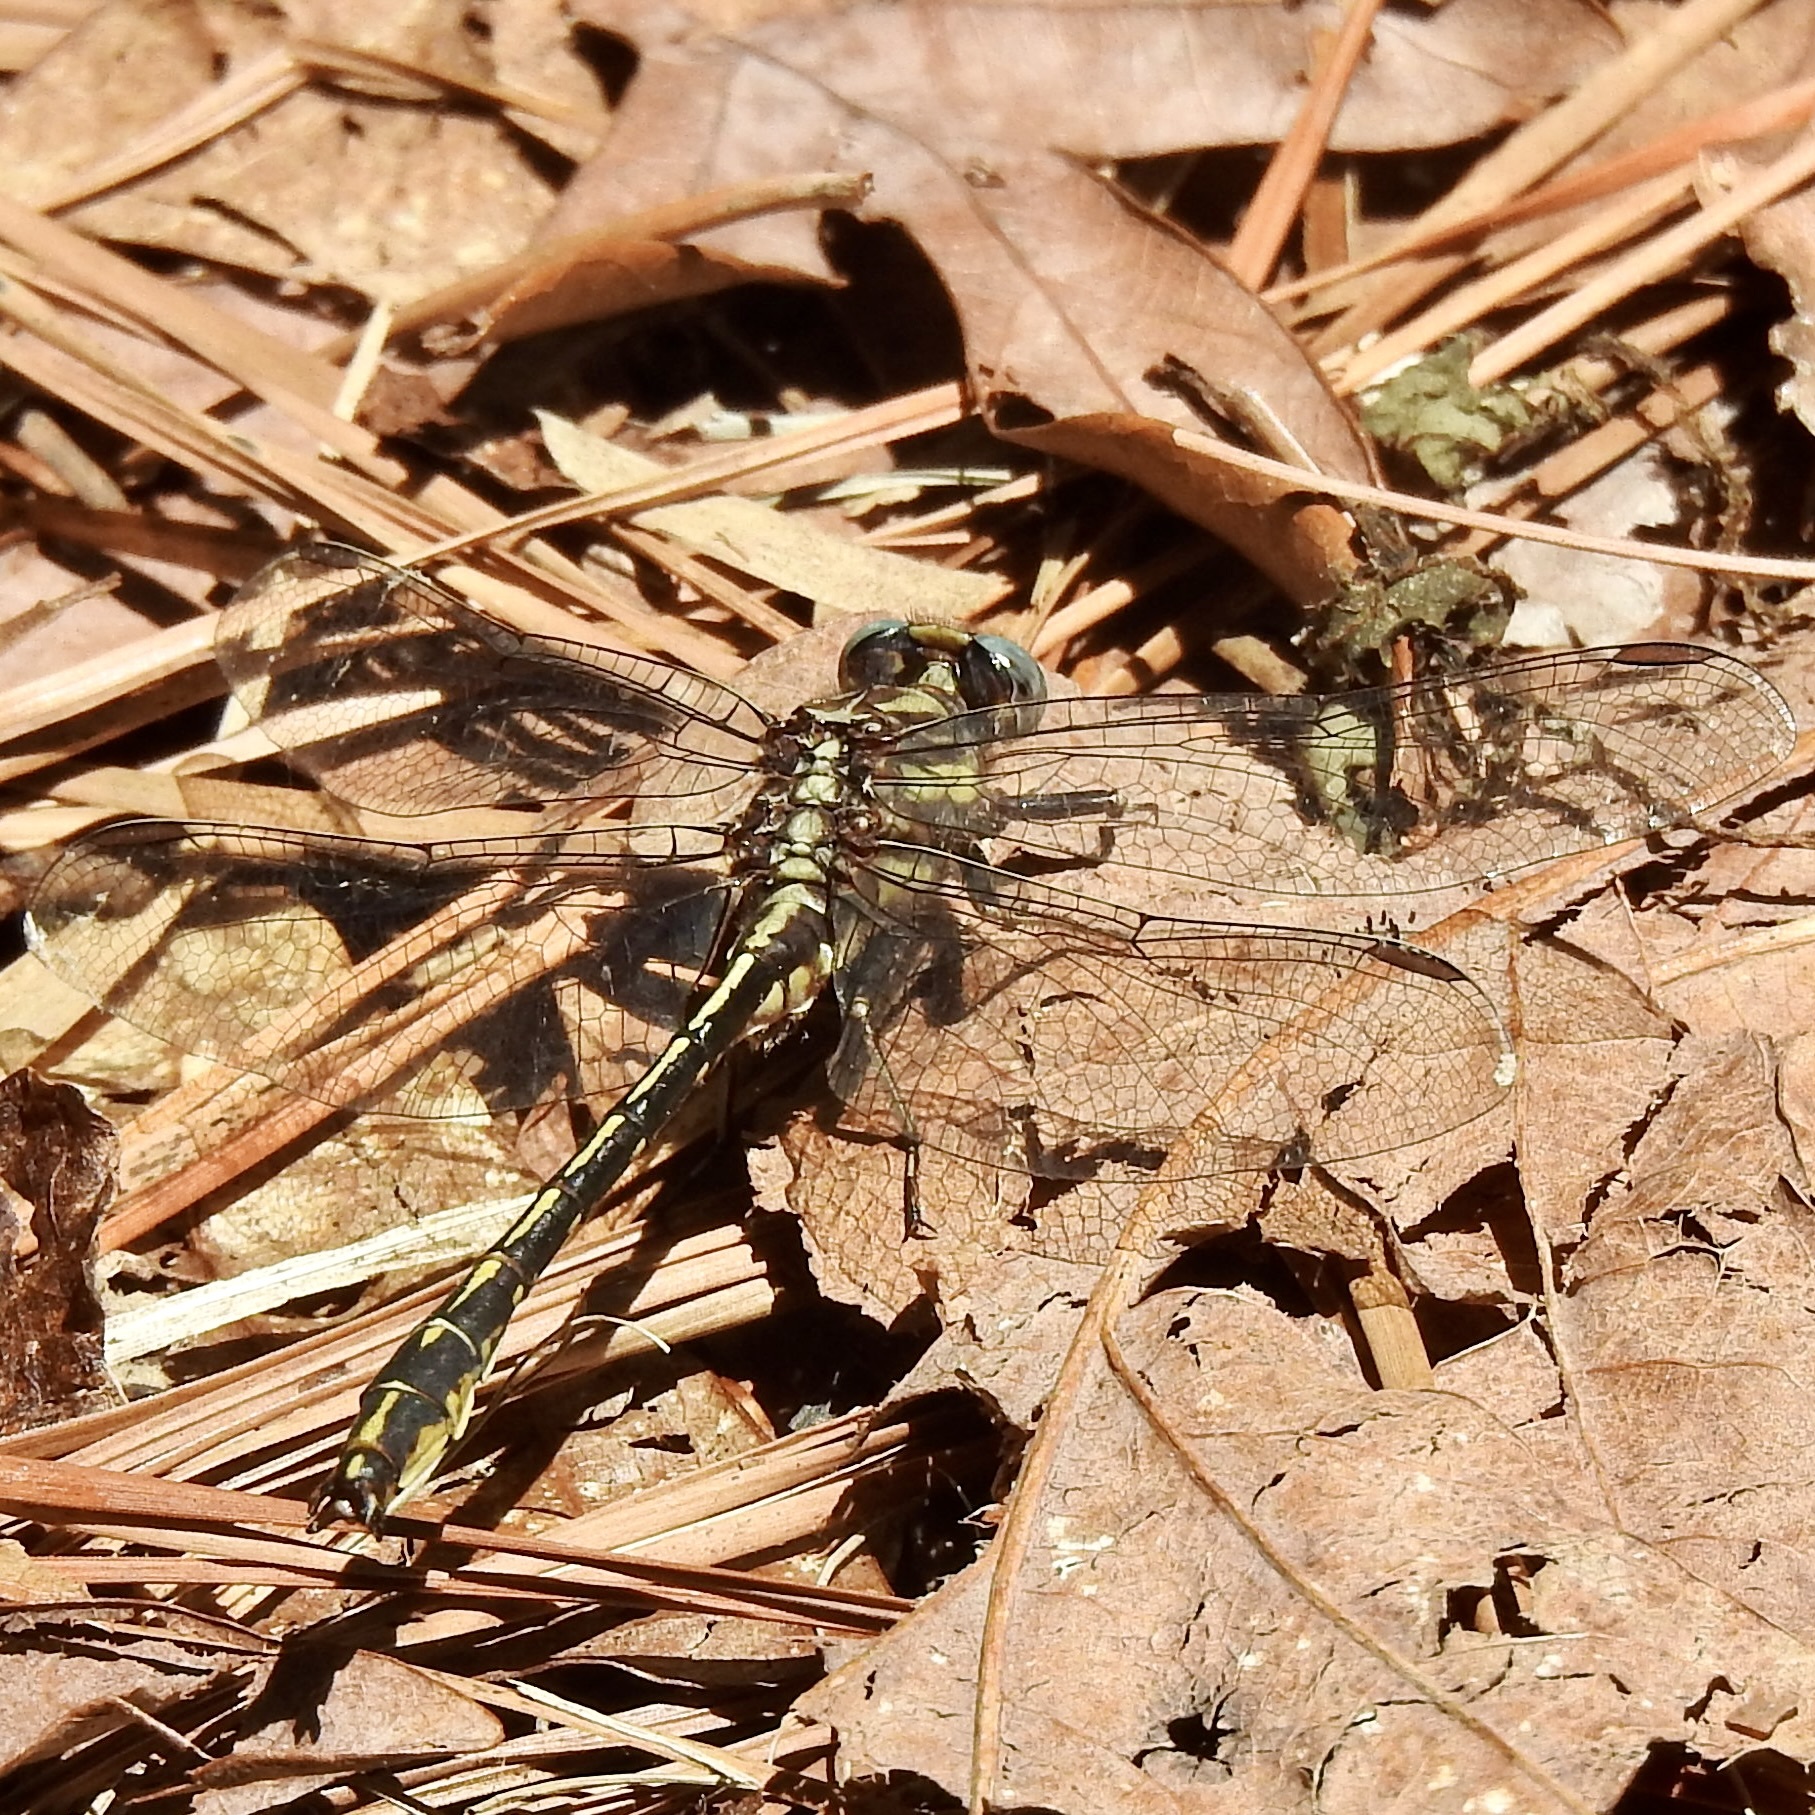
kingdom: Animalia
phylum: Arthropoda
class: Insecta
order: Odonata
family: Gomphidae
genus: Phanogomphus
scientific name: Phanogomphus oklahomensis
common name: Oklahoma clubtail
